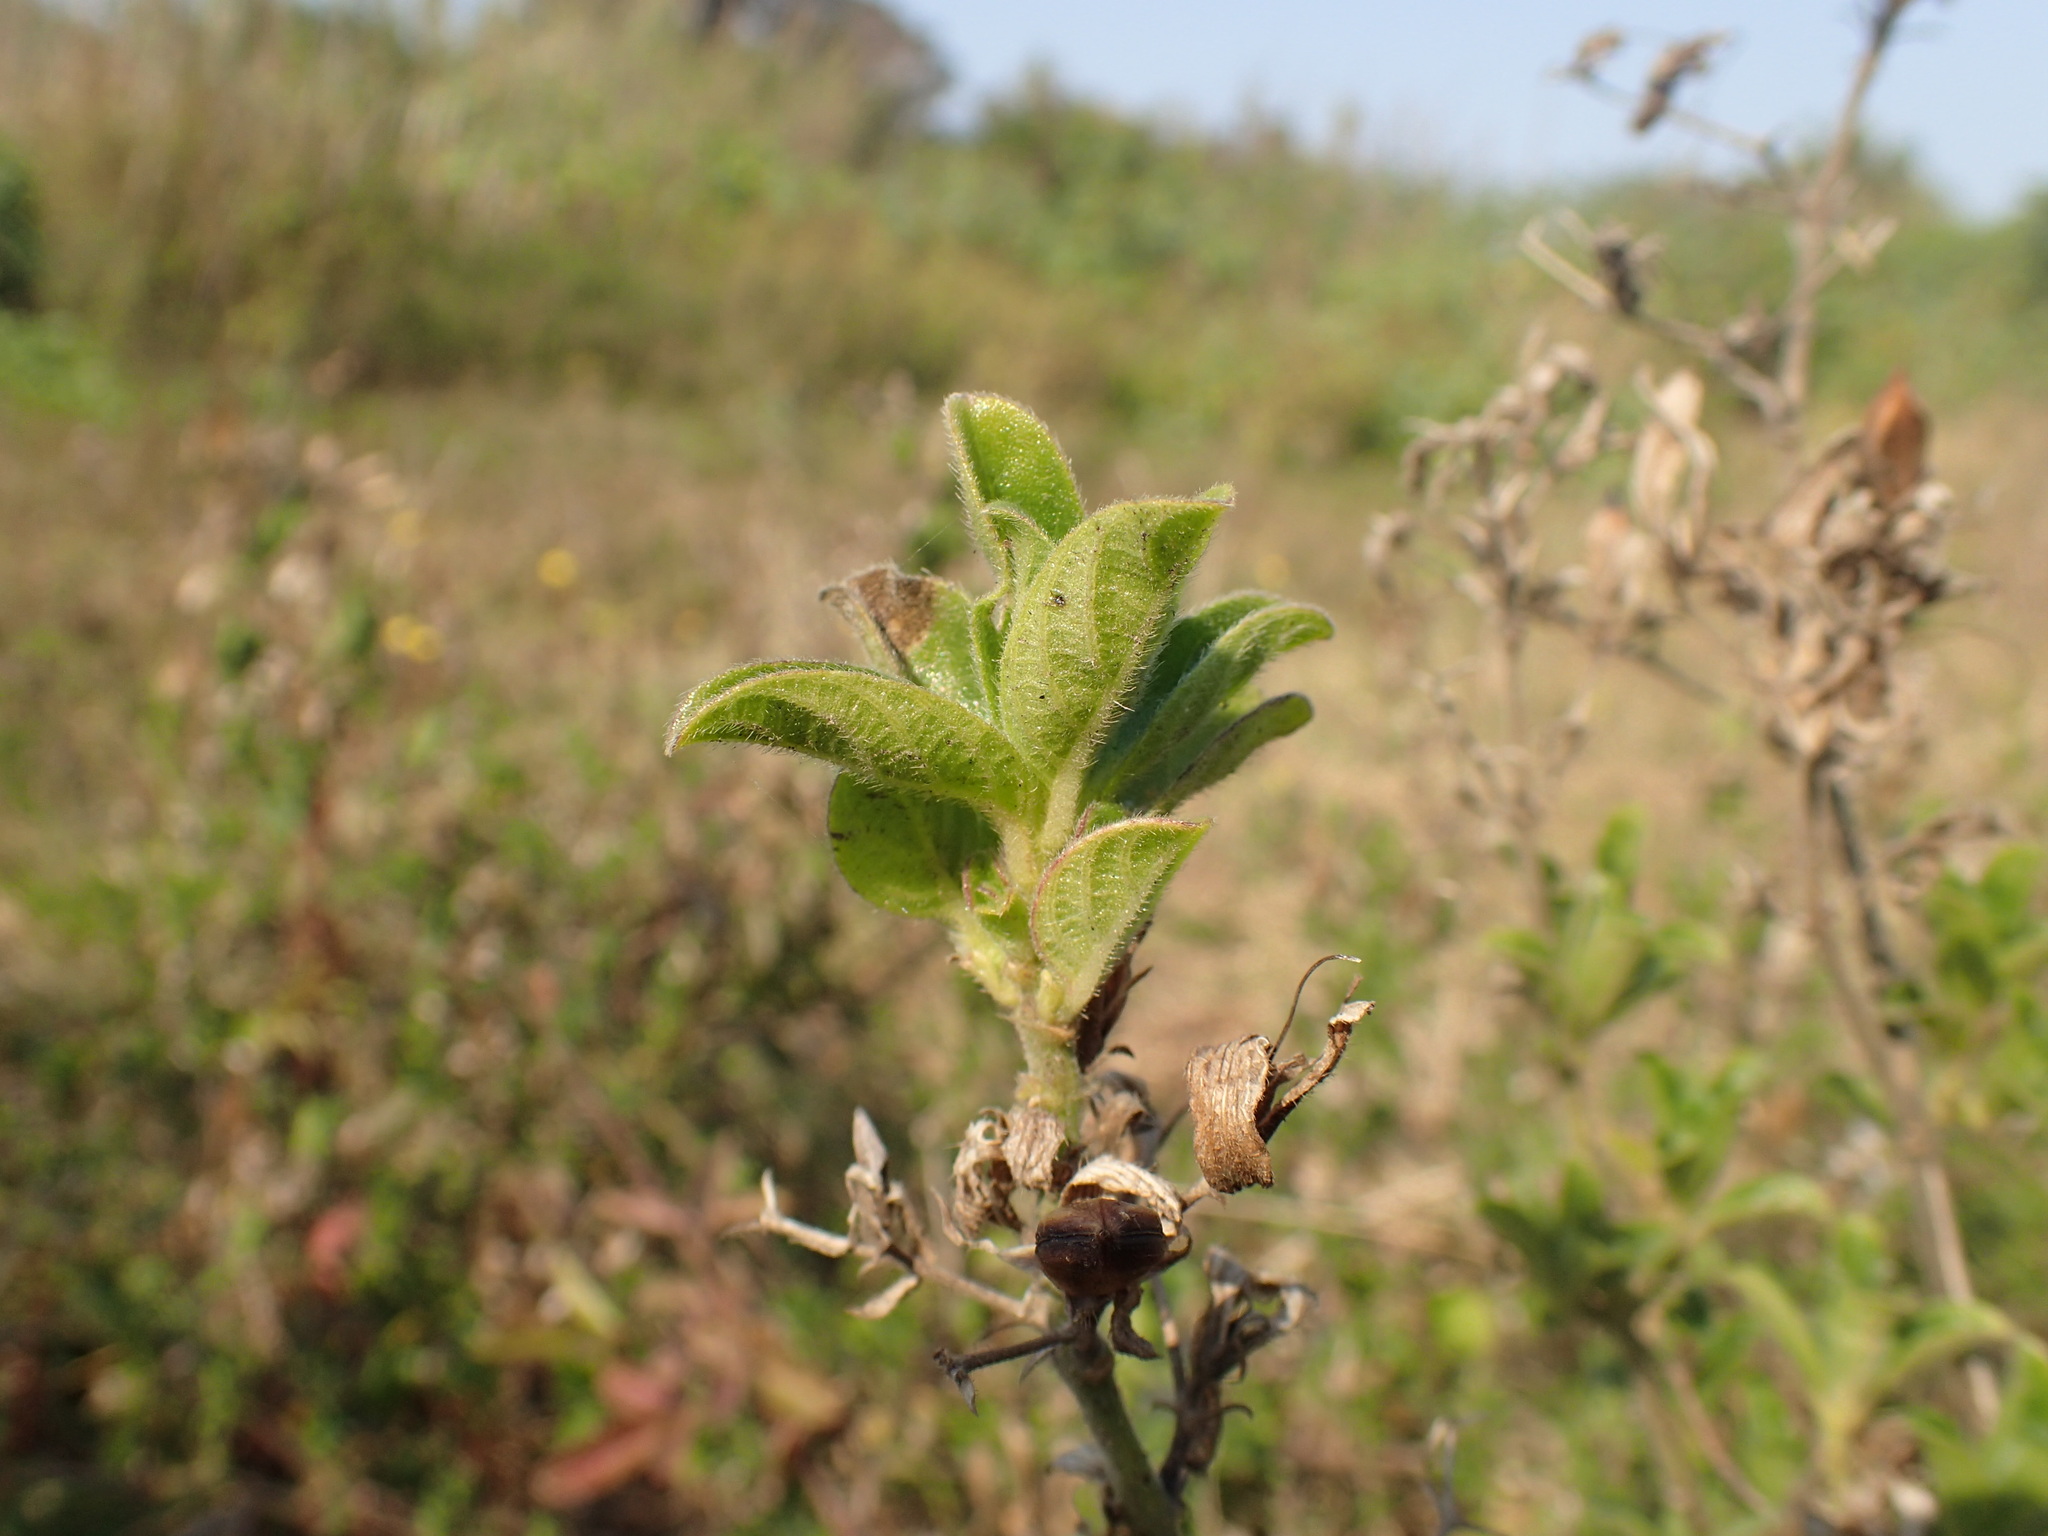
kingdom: Plantae
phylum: Tracheophyta
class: Magnoliopsida
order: Lamiales
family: Acanthaceae
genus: Barleria
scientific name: Barleria obtusa
